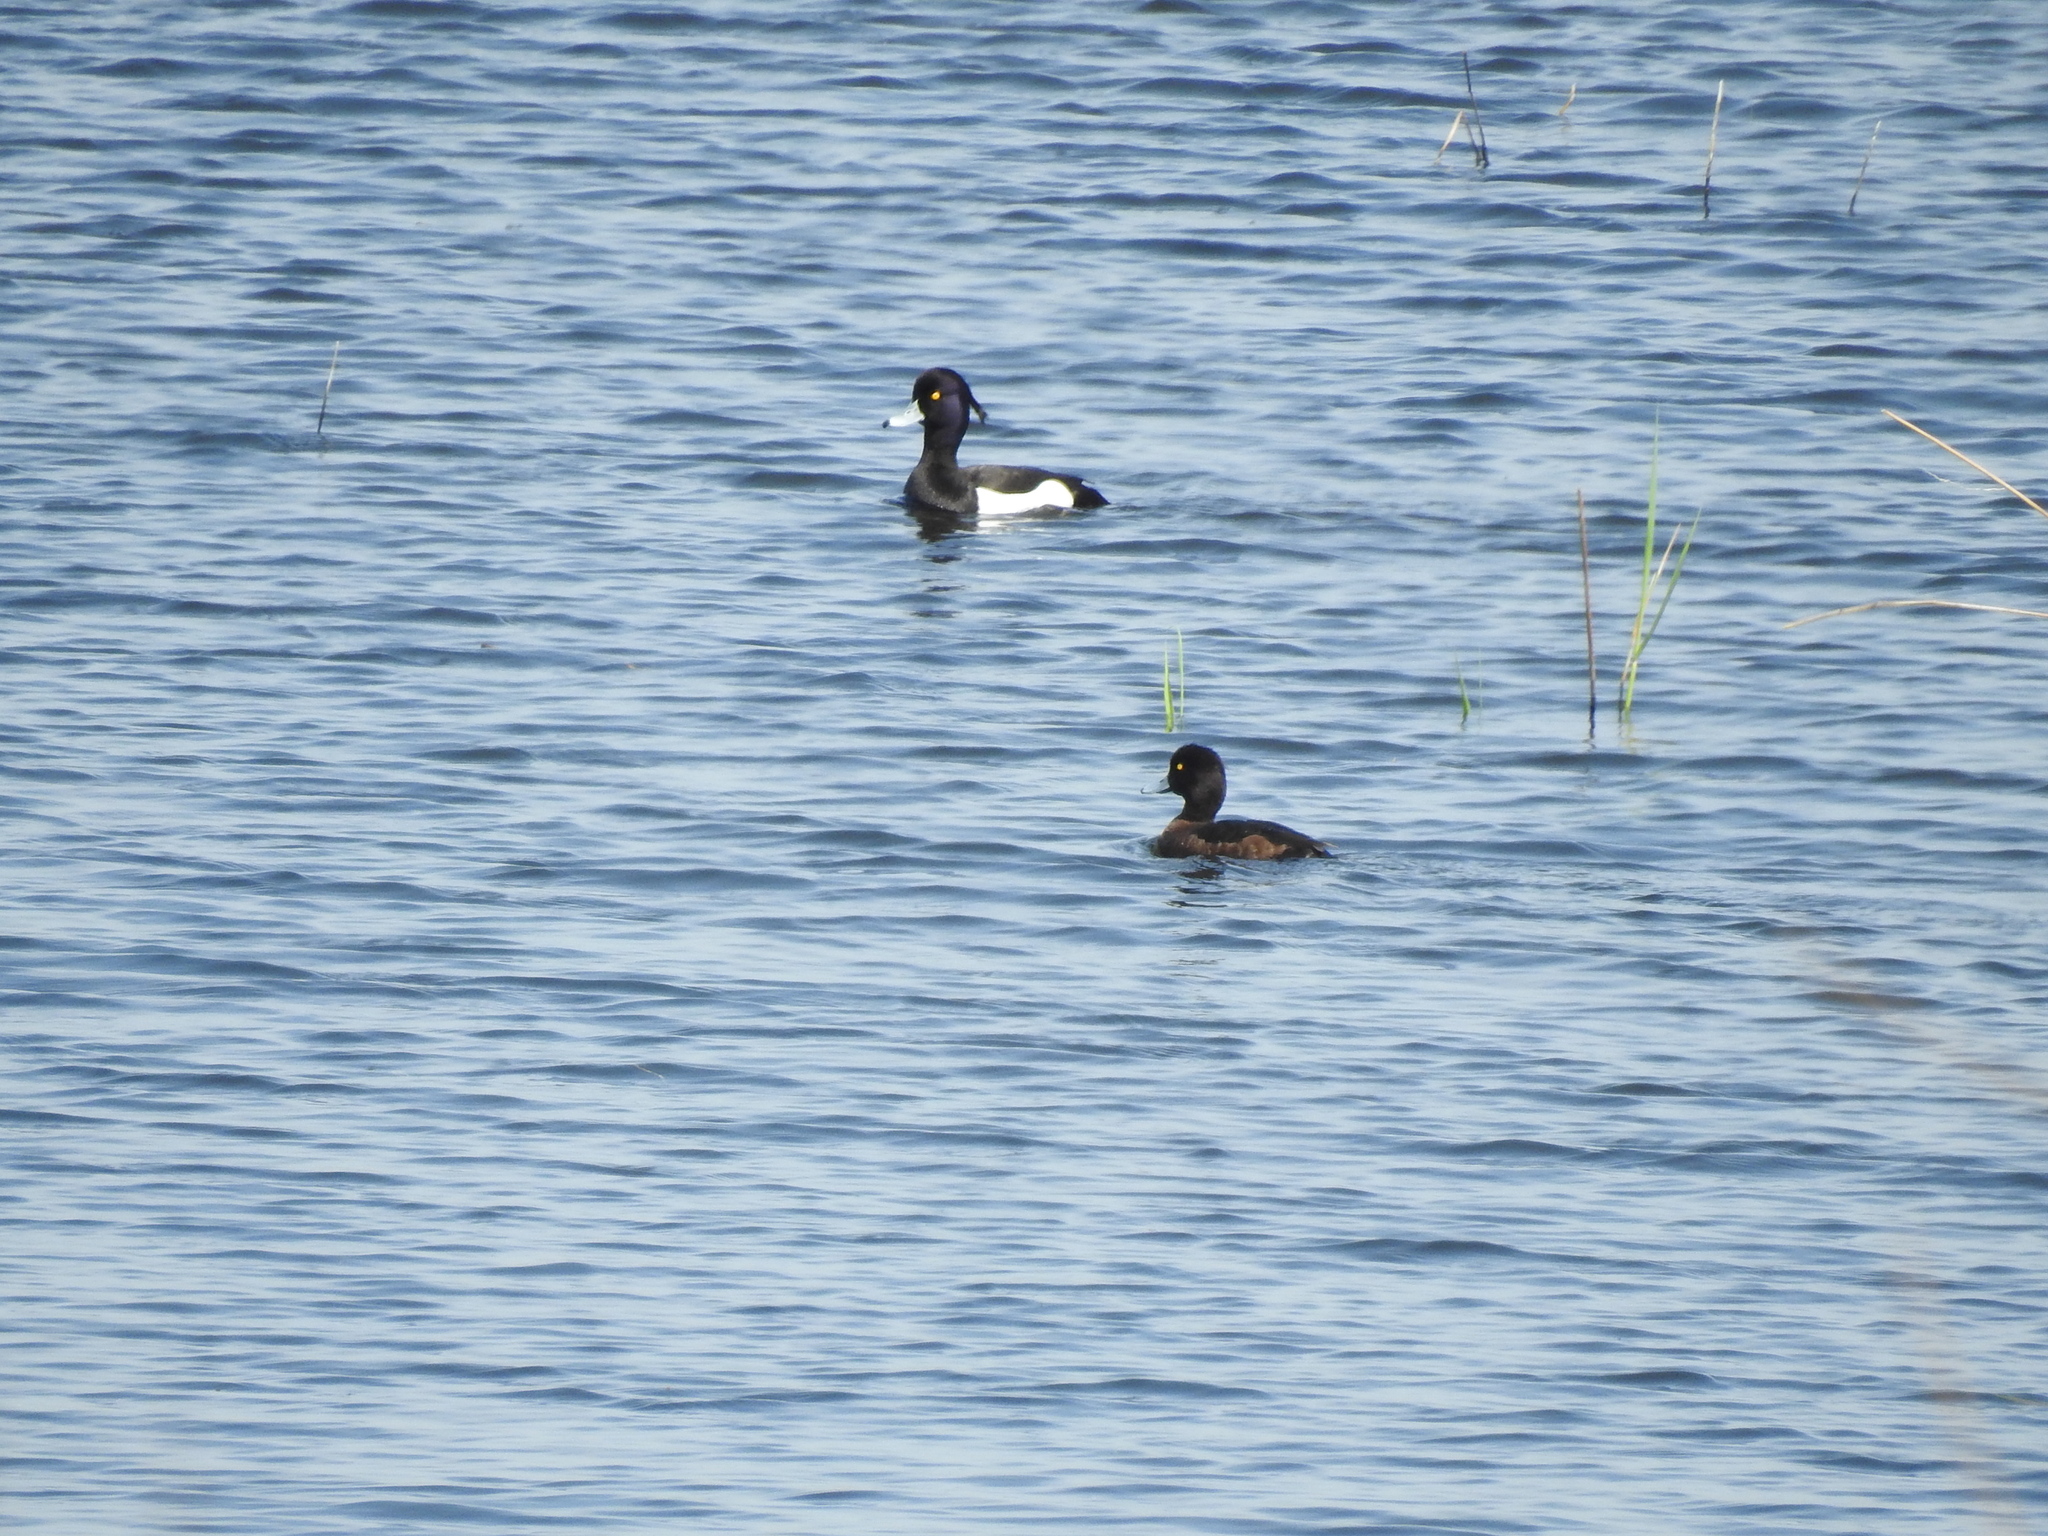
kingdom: Animalia
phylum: Chordata
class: Aves
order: Anseriformes
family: Anatidae
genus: Aythya
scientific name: Aythya fuligula
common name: Tufted duck
